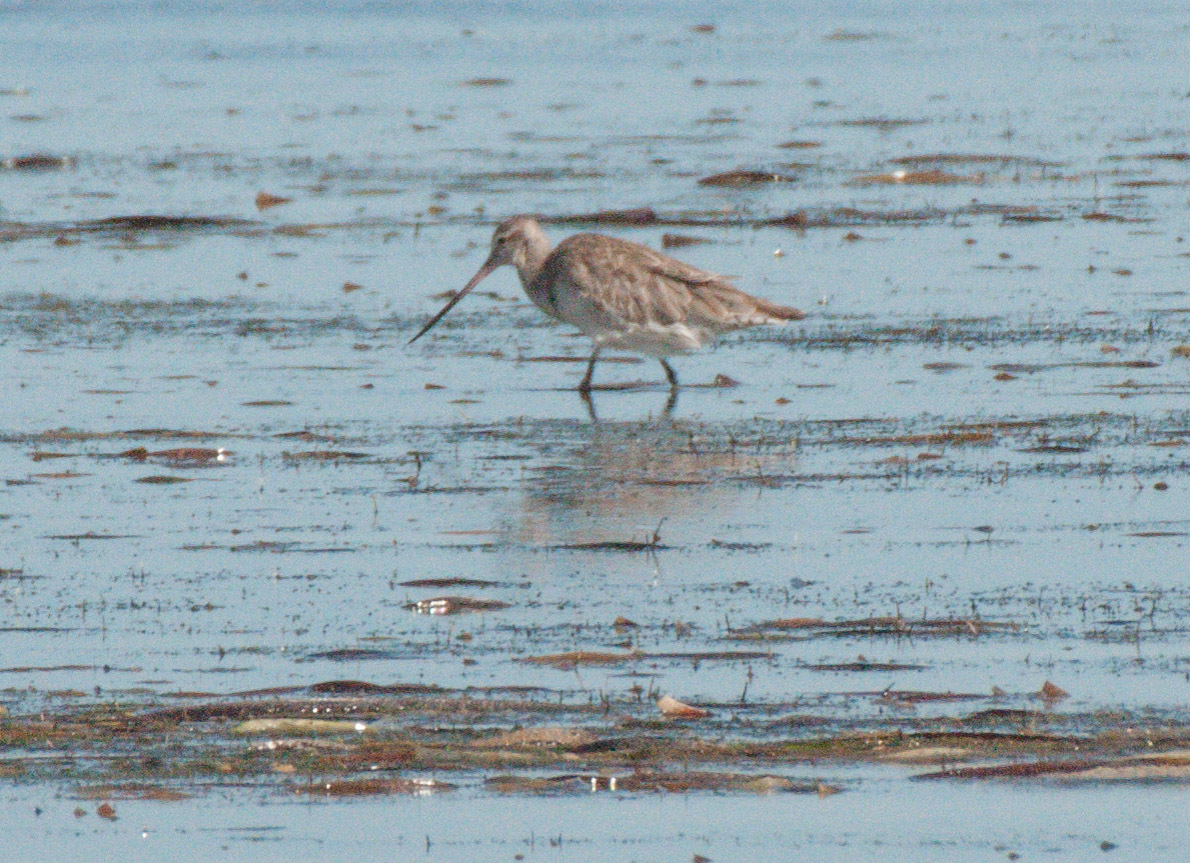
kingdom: Animalia
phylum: Chordata
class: Aves
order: Charadriiformes
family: Scolopacidae
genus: Limosa
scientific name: Limosa lapponica
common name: Bar-tailed godwit
